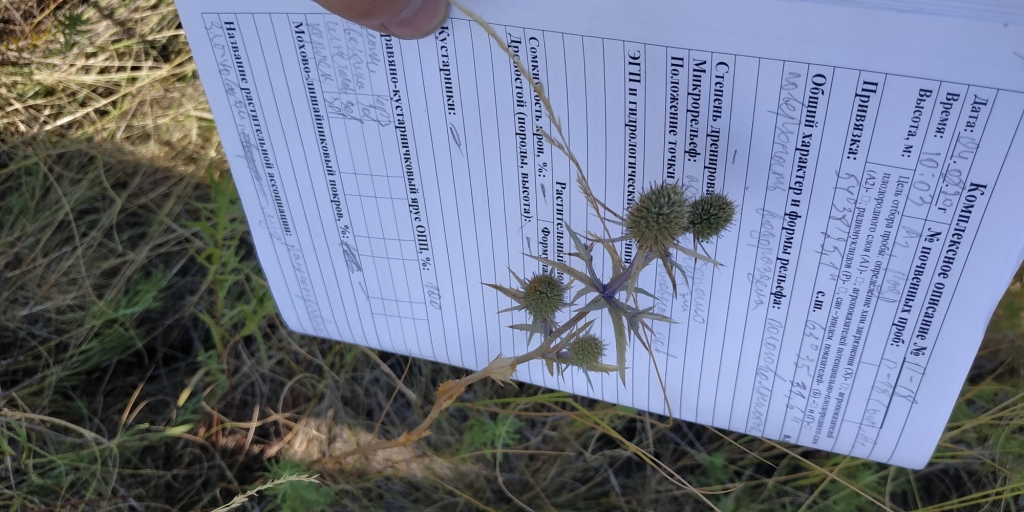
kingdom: Plantae
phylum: Tracheophyta
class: Magnoliopsida
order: Apiales
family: Apiaceae
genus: Eryngium
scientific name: Eryngium planum
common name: Blue eryngo
